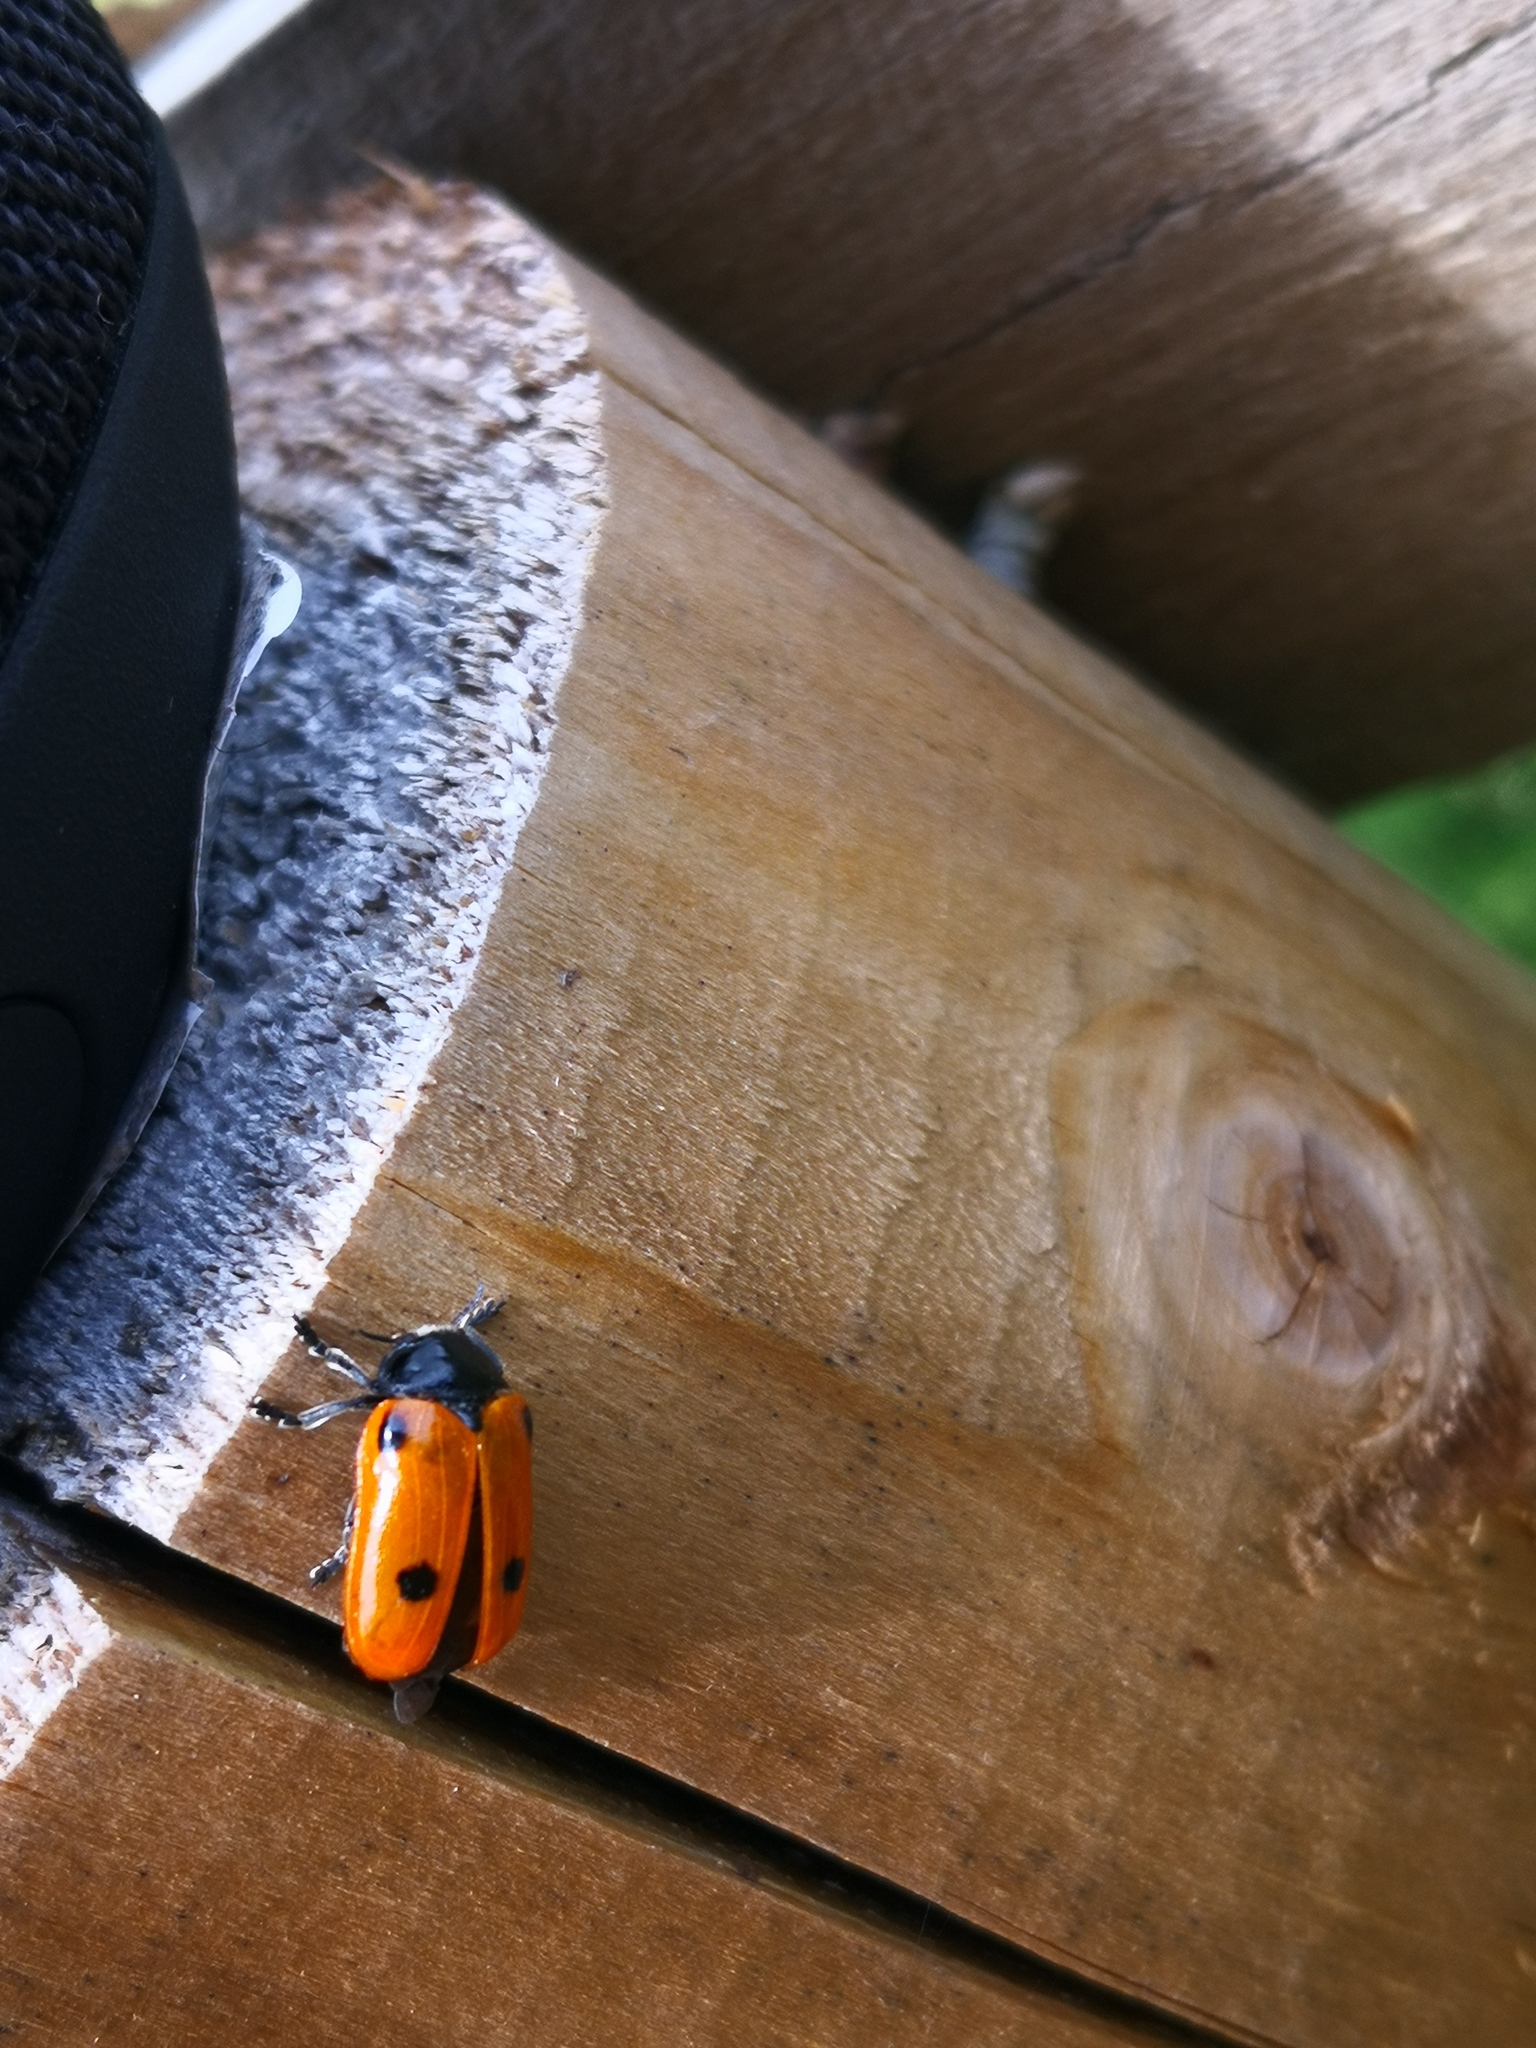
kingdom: Animalia
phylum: Arthropoda
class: Insecta
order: Coleoptera
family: Chrysomelidae
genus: Clytra
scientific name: Clytra quadripunctata
